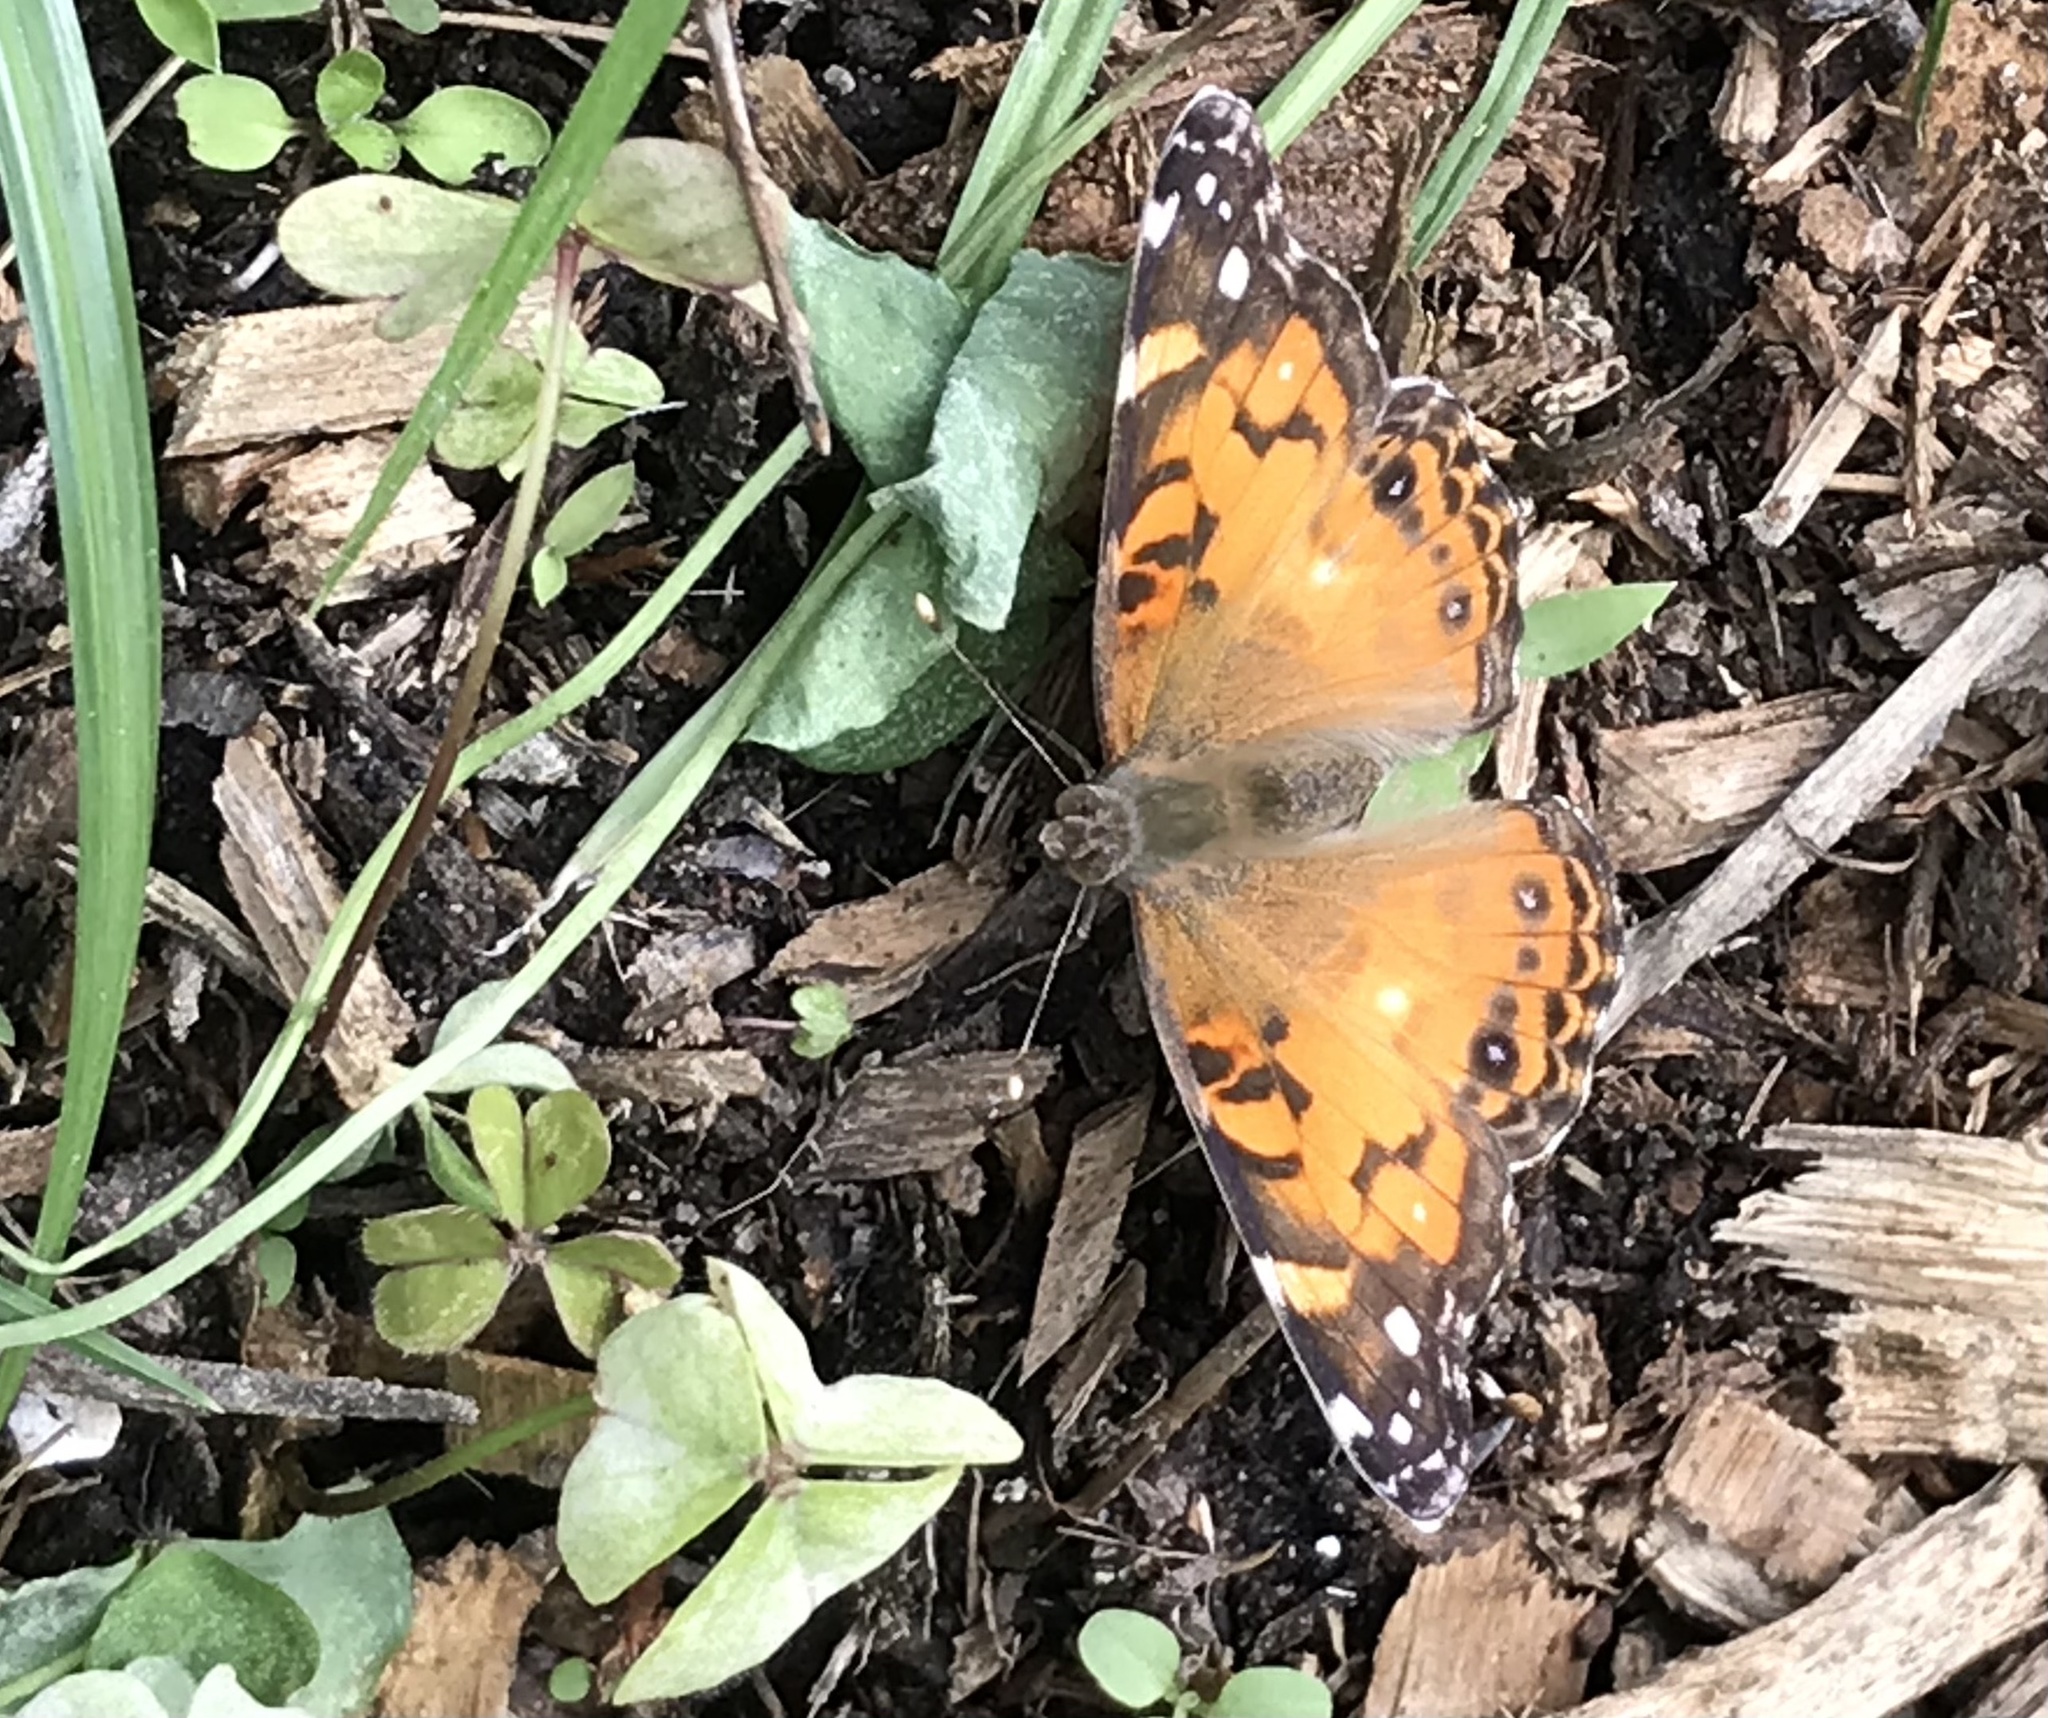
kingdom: Animalia
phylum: Arthropoda
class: Insecta
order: Lepidoptera
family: Nymphalidae
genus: Vanessa
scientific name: Vanessa virginiensis
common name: American lady
